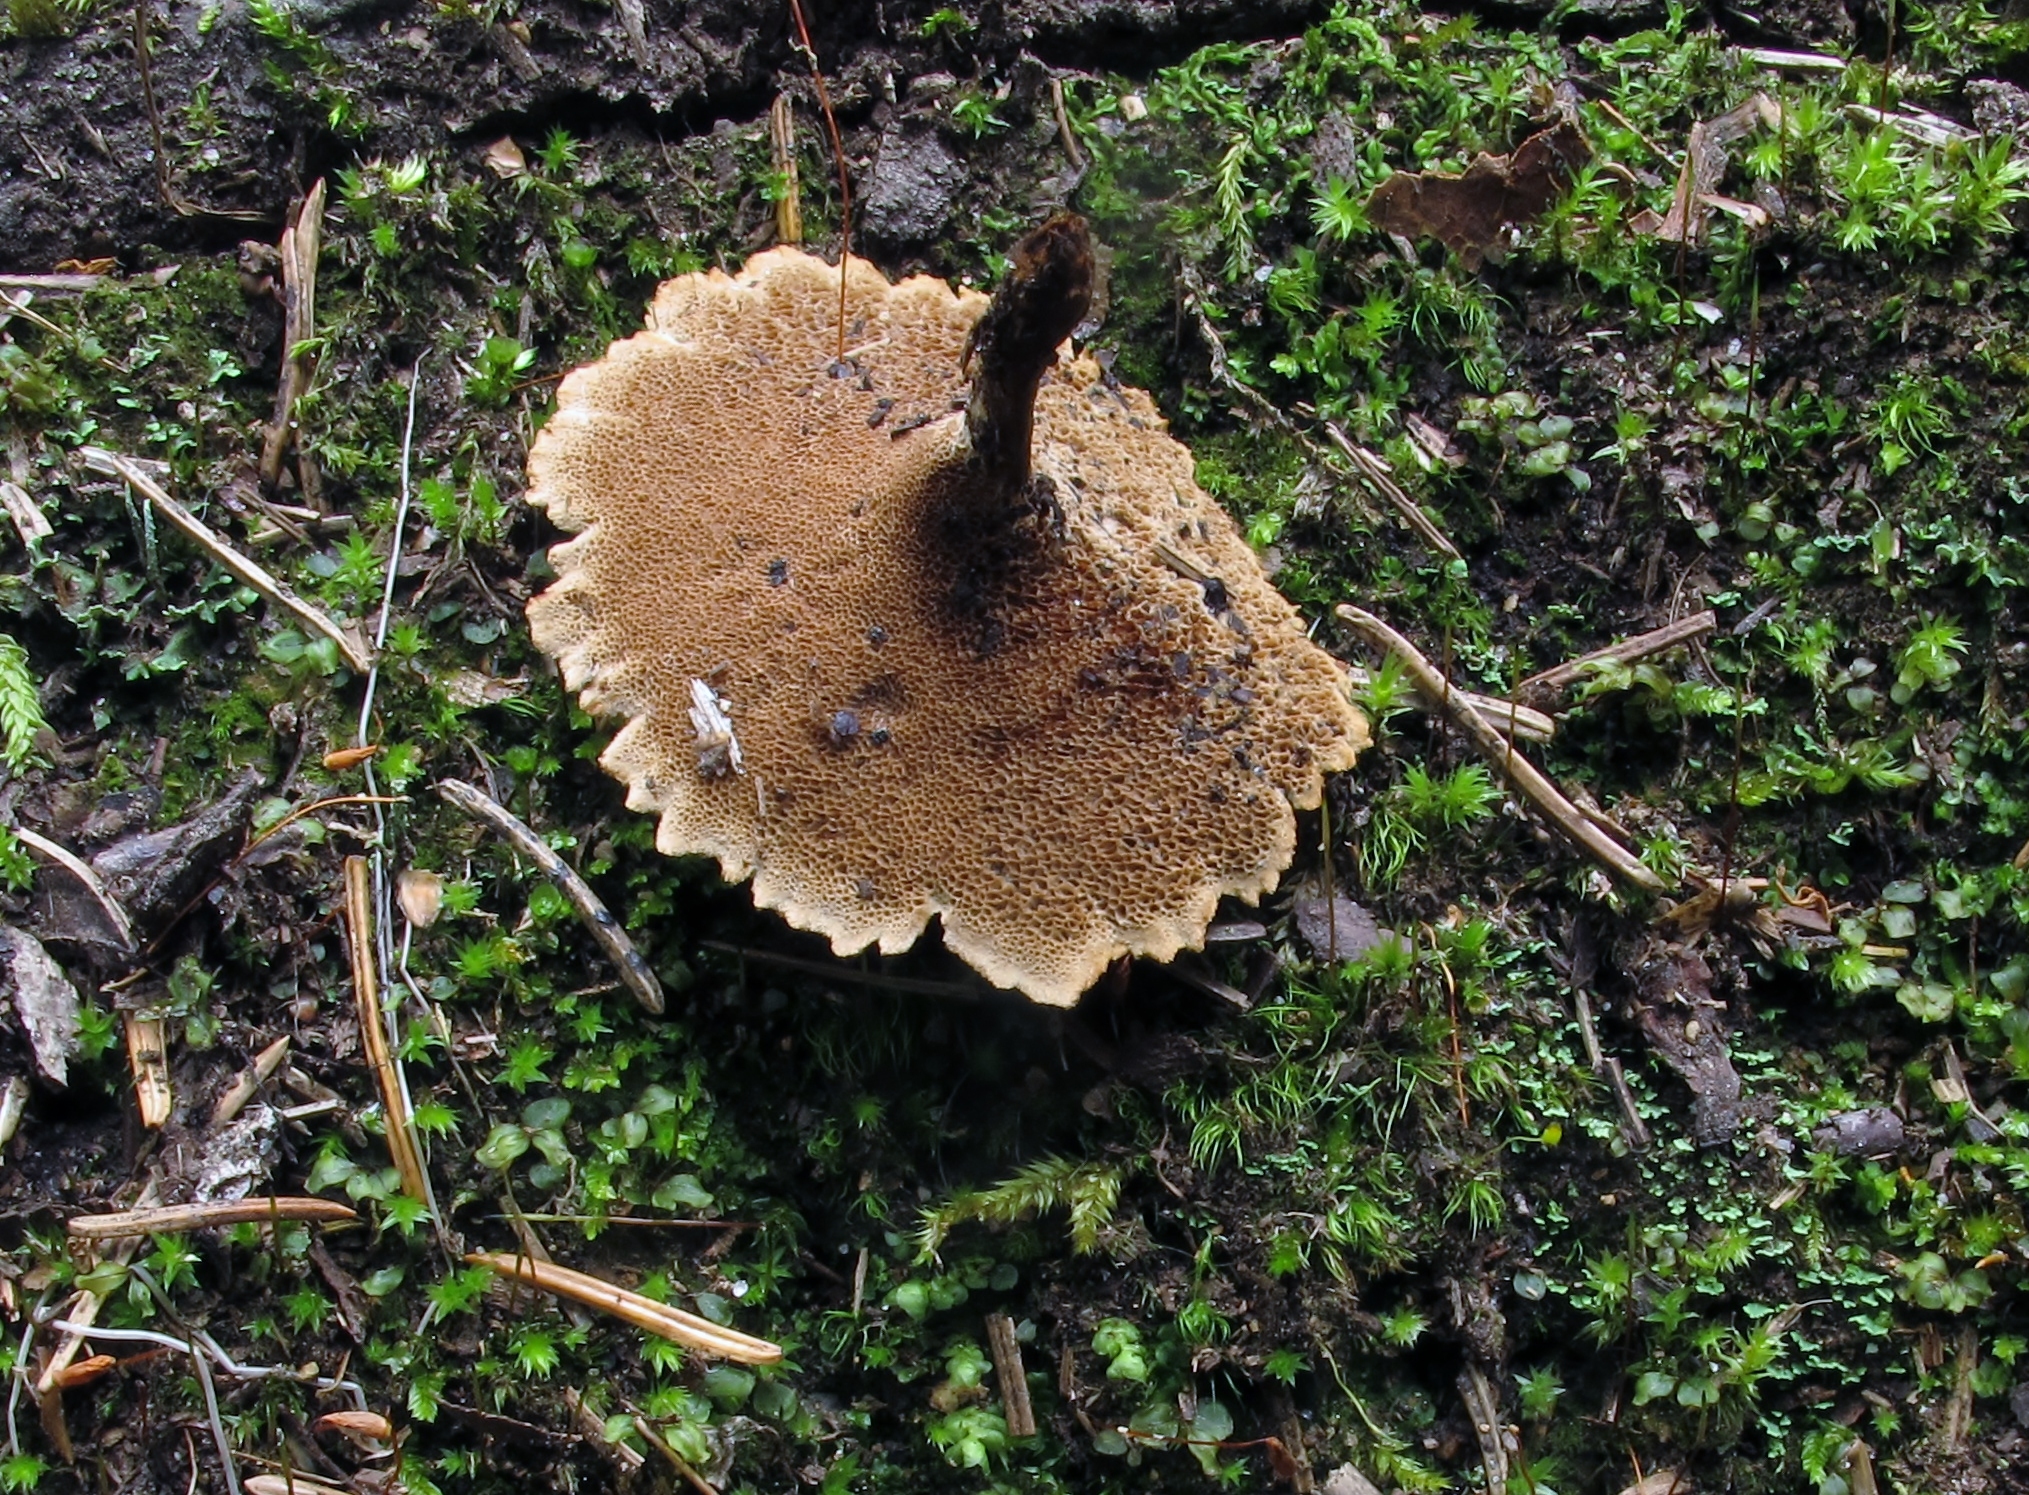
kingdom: Fungi
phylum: Basidiomycota
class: Agaricomycetes
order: Hymenochaetales
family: Hymenochaetaceae
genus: Coltricia
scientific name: Coltricia cinnamomea
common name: Shiny cinnamon polypore
